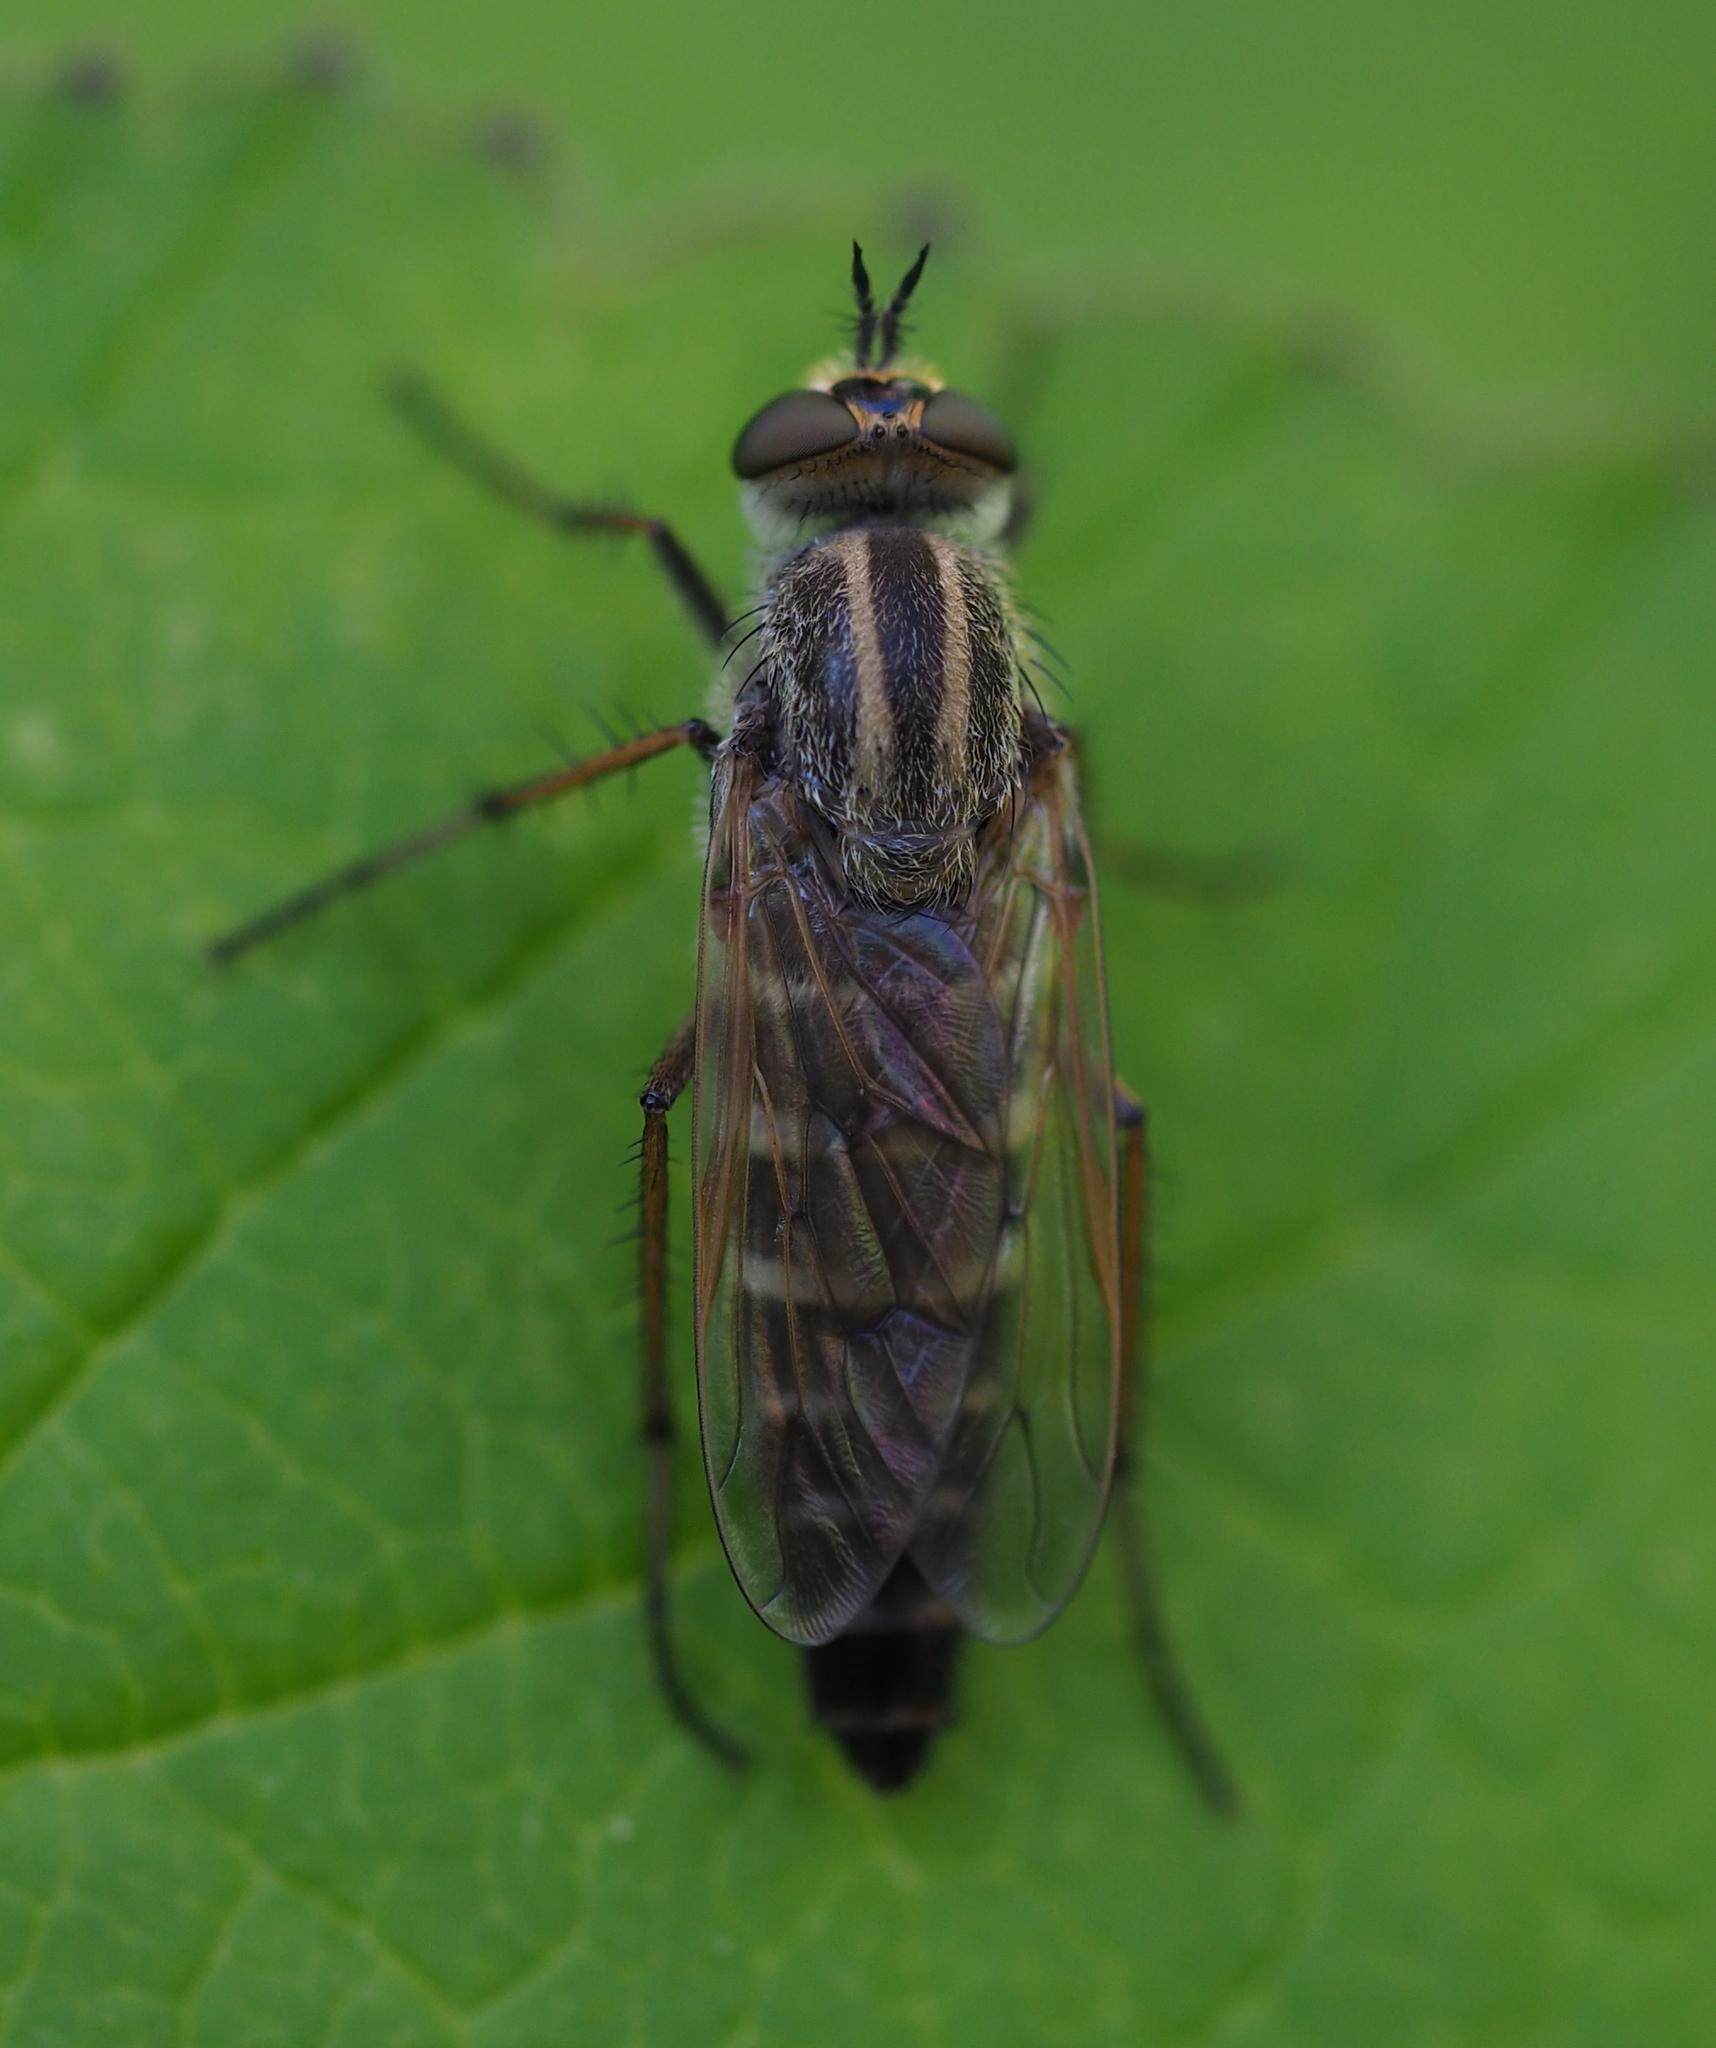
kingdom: Animalia
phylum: Arthropoda
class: Insecta
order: Diptera
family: Therevidae
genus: Thereva
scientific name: Thereva cincta
